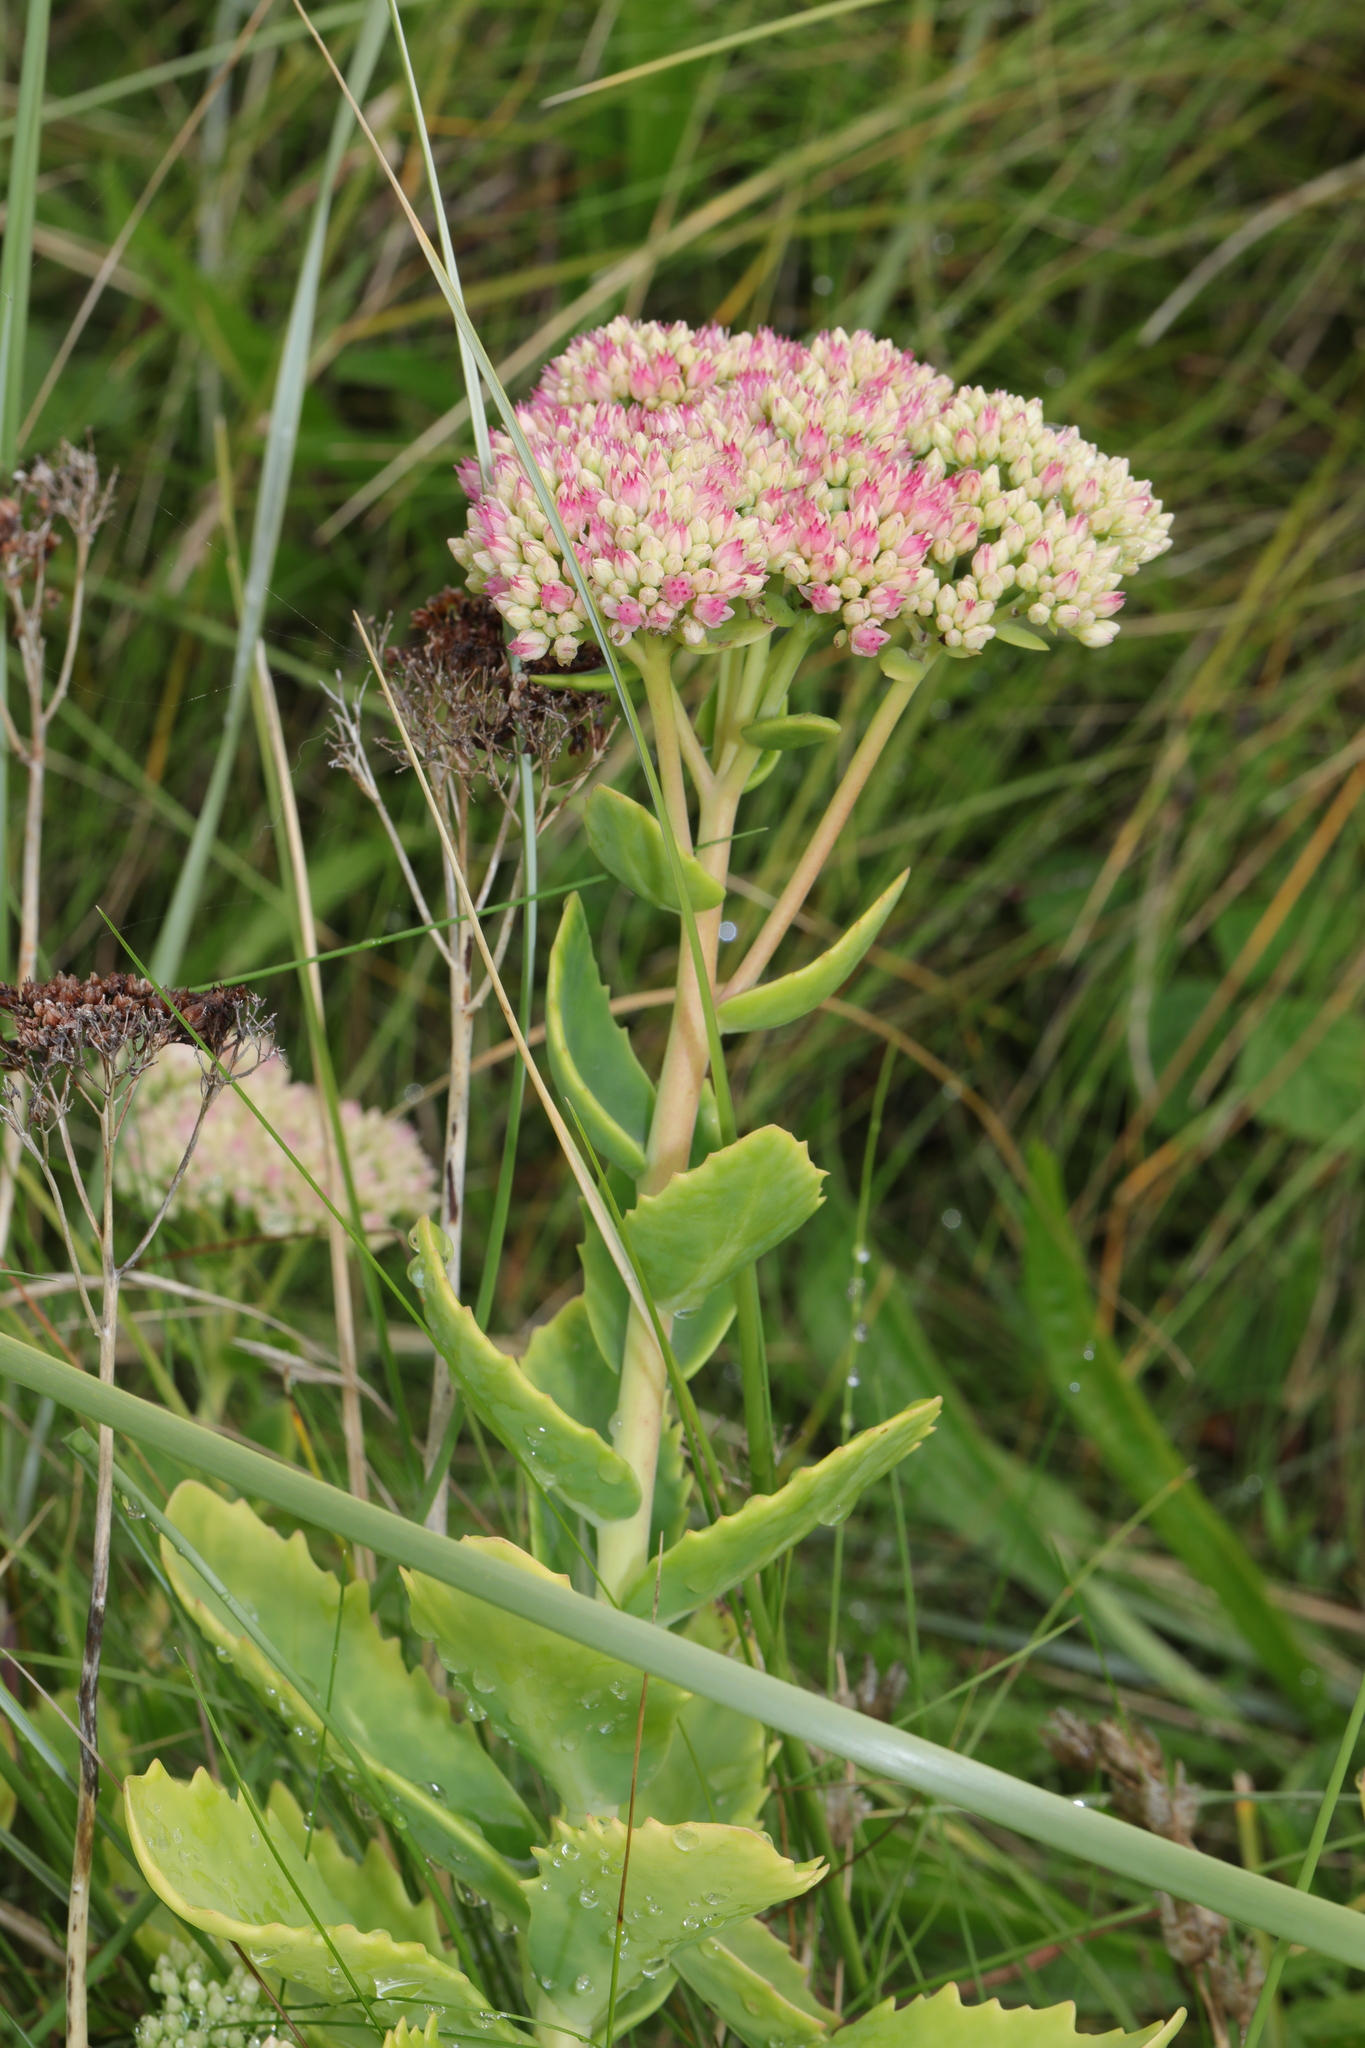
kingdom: Plantae
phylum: Tracheophyta
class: Magnoliopsida
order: Saxifragales
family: Crassulaceae
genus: Hylotelephium
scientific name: Hylotelephium
